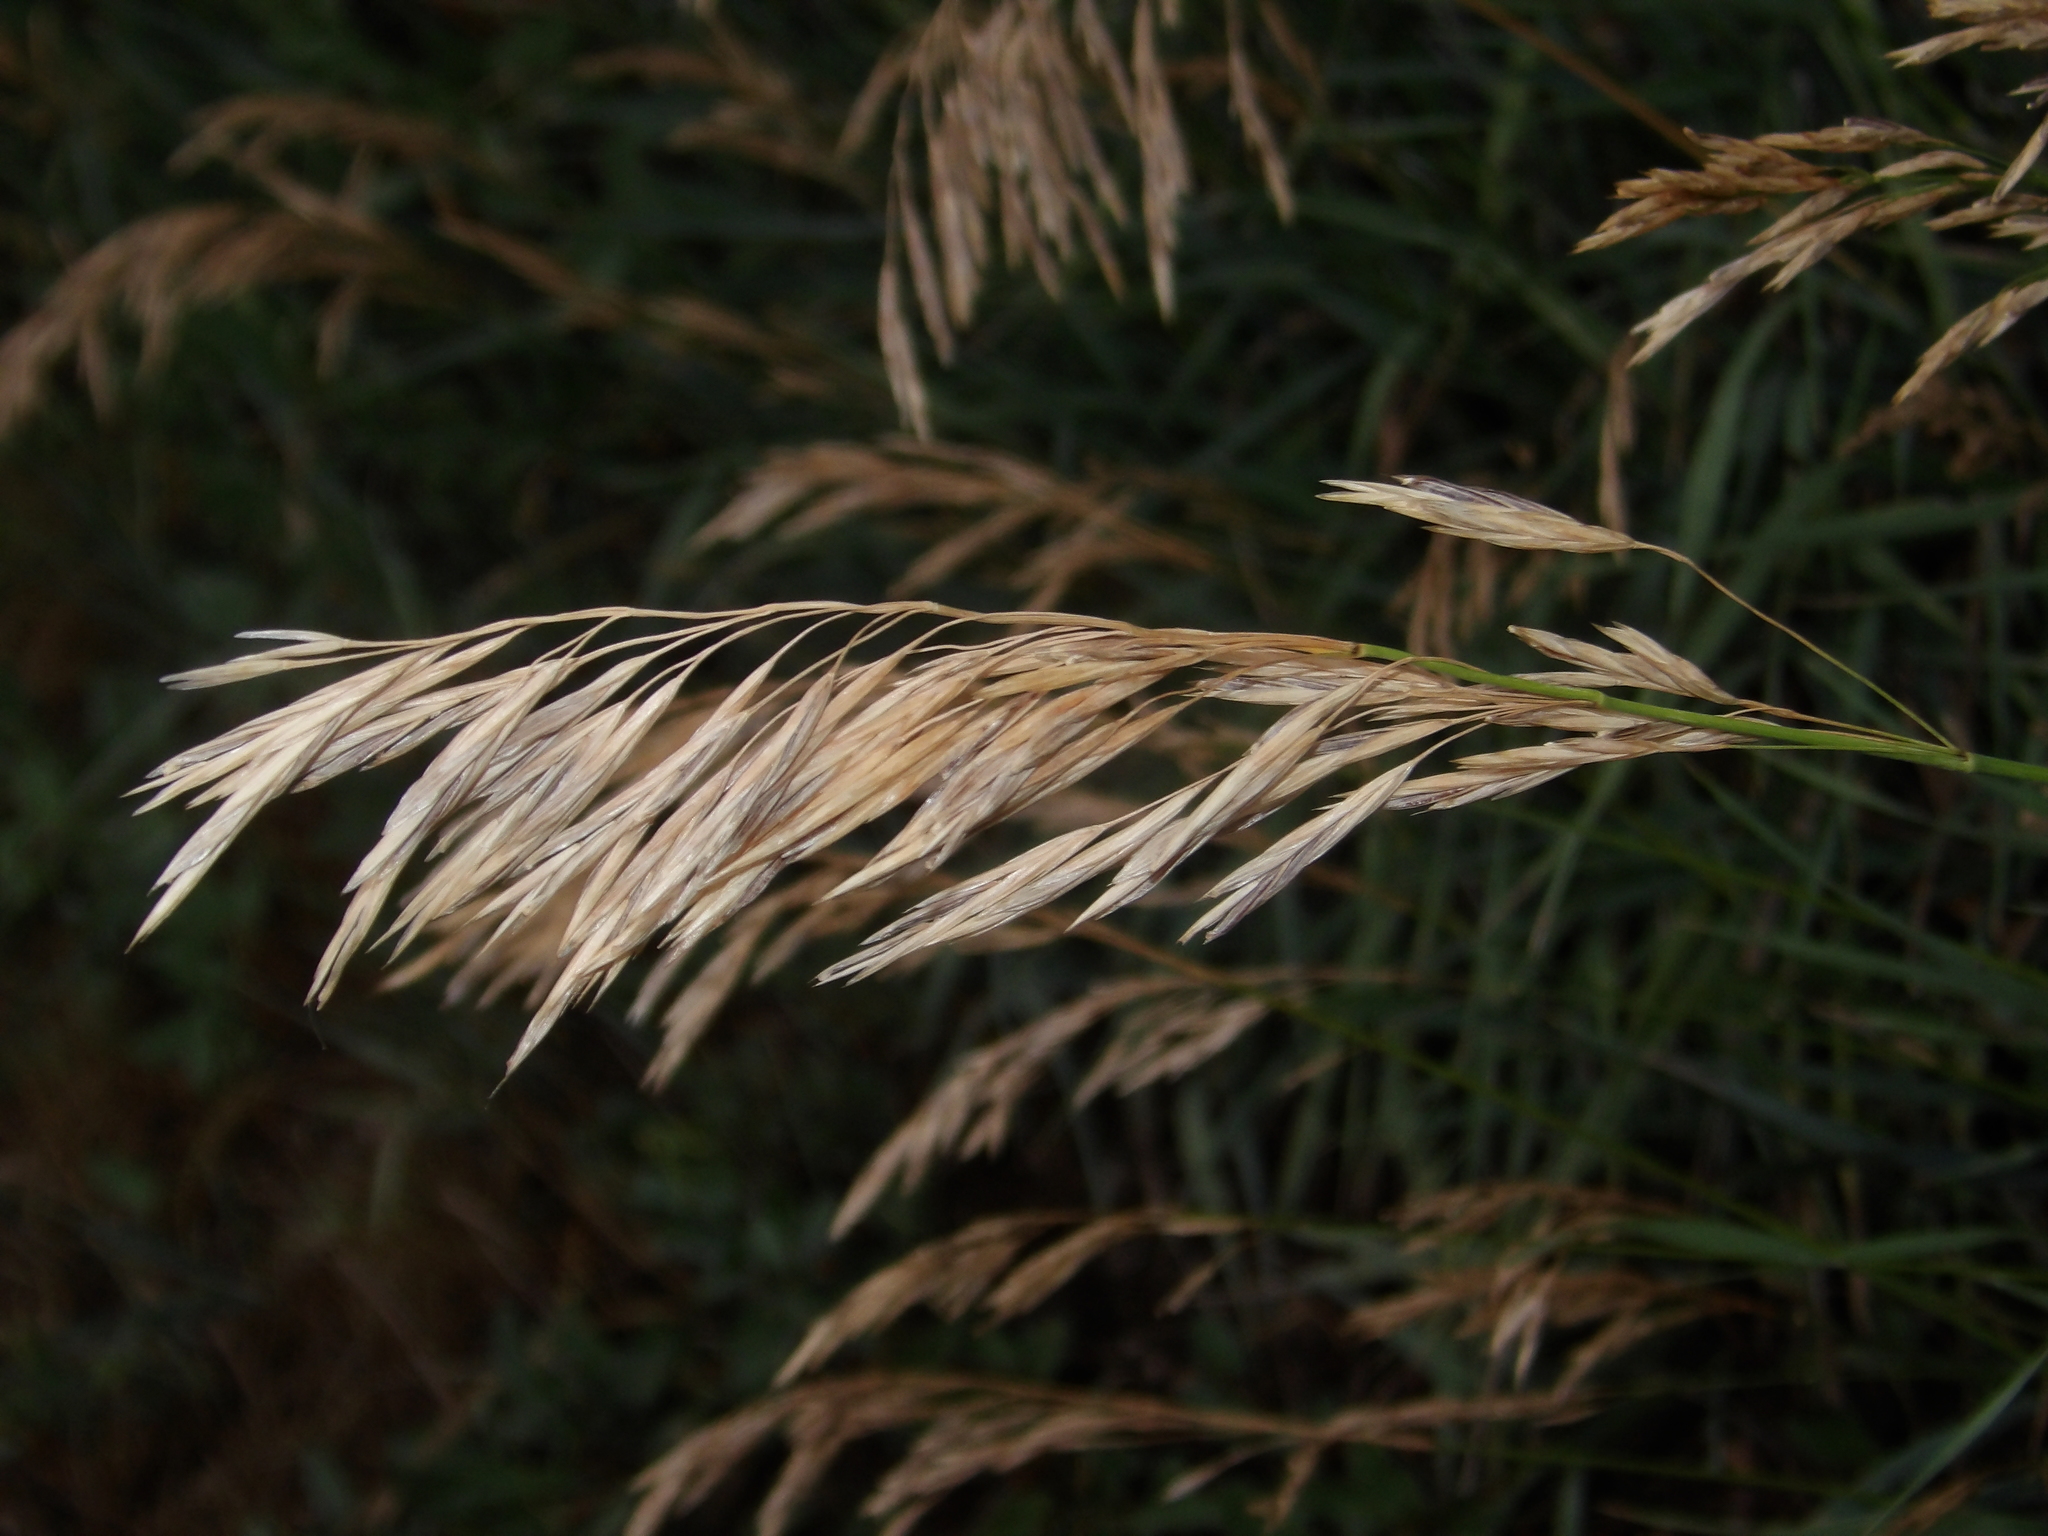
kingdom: Plantae
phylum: Tracheophyta
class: Liliopsida
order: Poales
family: Poaceae
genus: Bromus
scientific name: Bromus inermis
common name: Smooth brome
